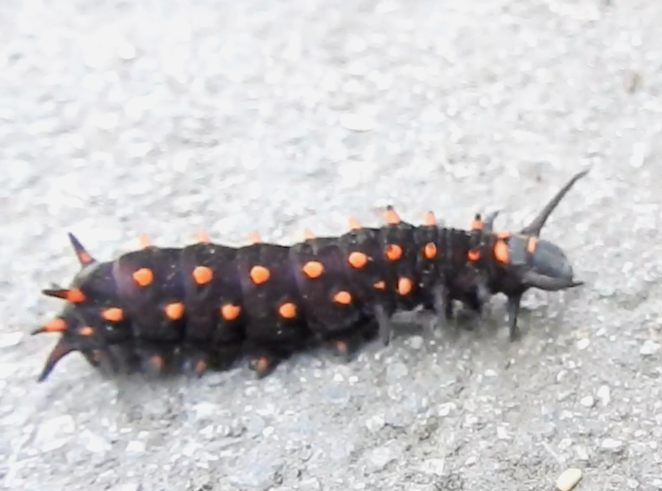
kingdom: Animalia
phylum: Arthropoda
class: Insecta
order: Lepidoptera
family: Papilionidae
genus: Battus
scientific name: Battus philenor
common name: Pipevine swallowtail
